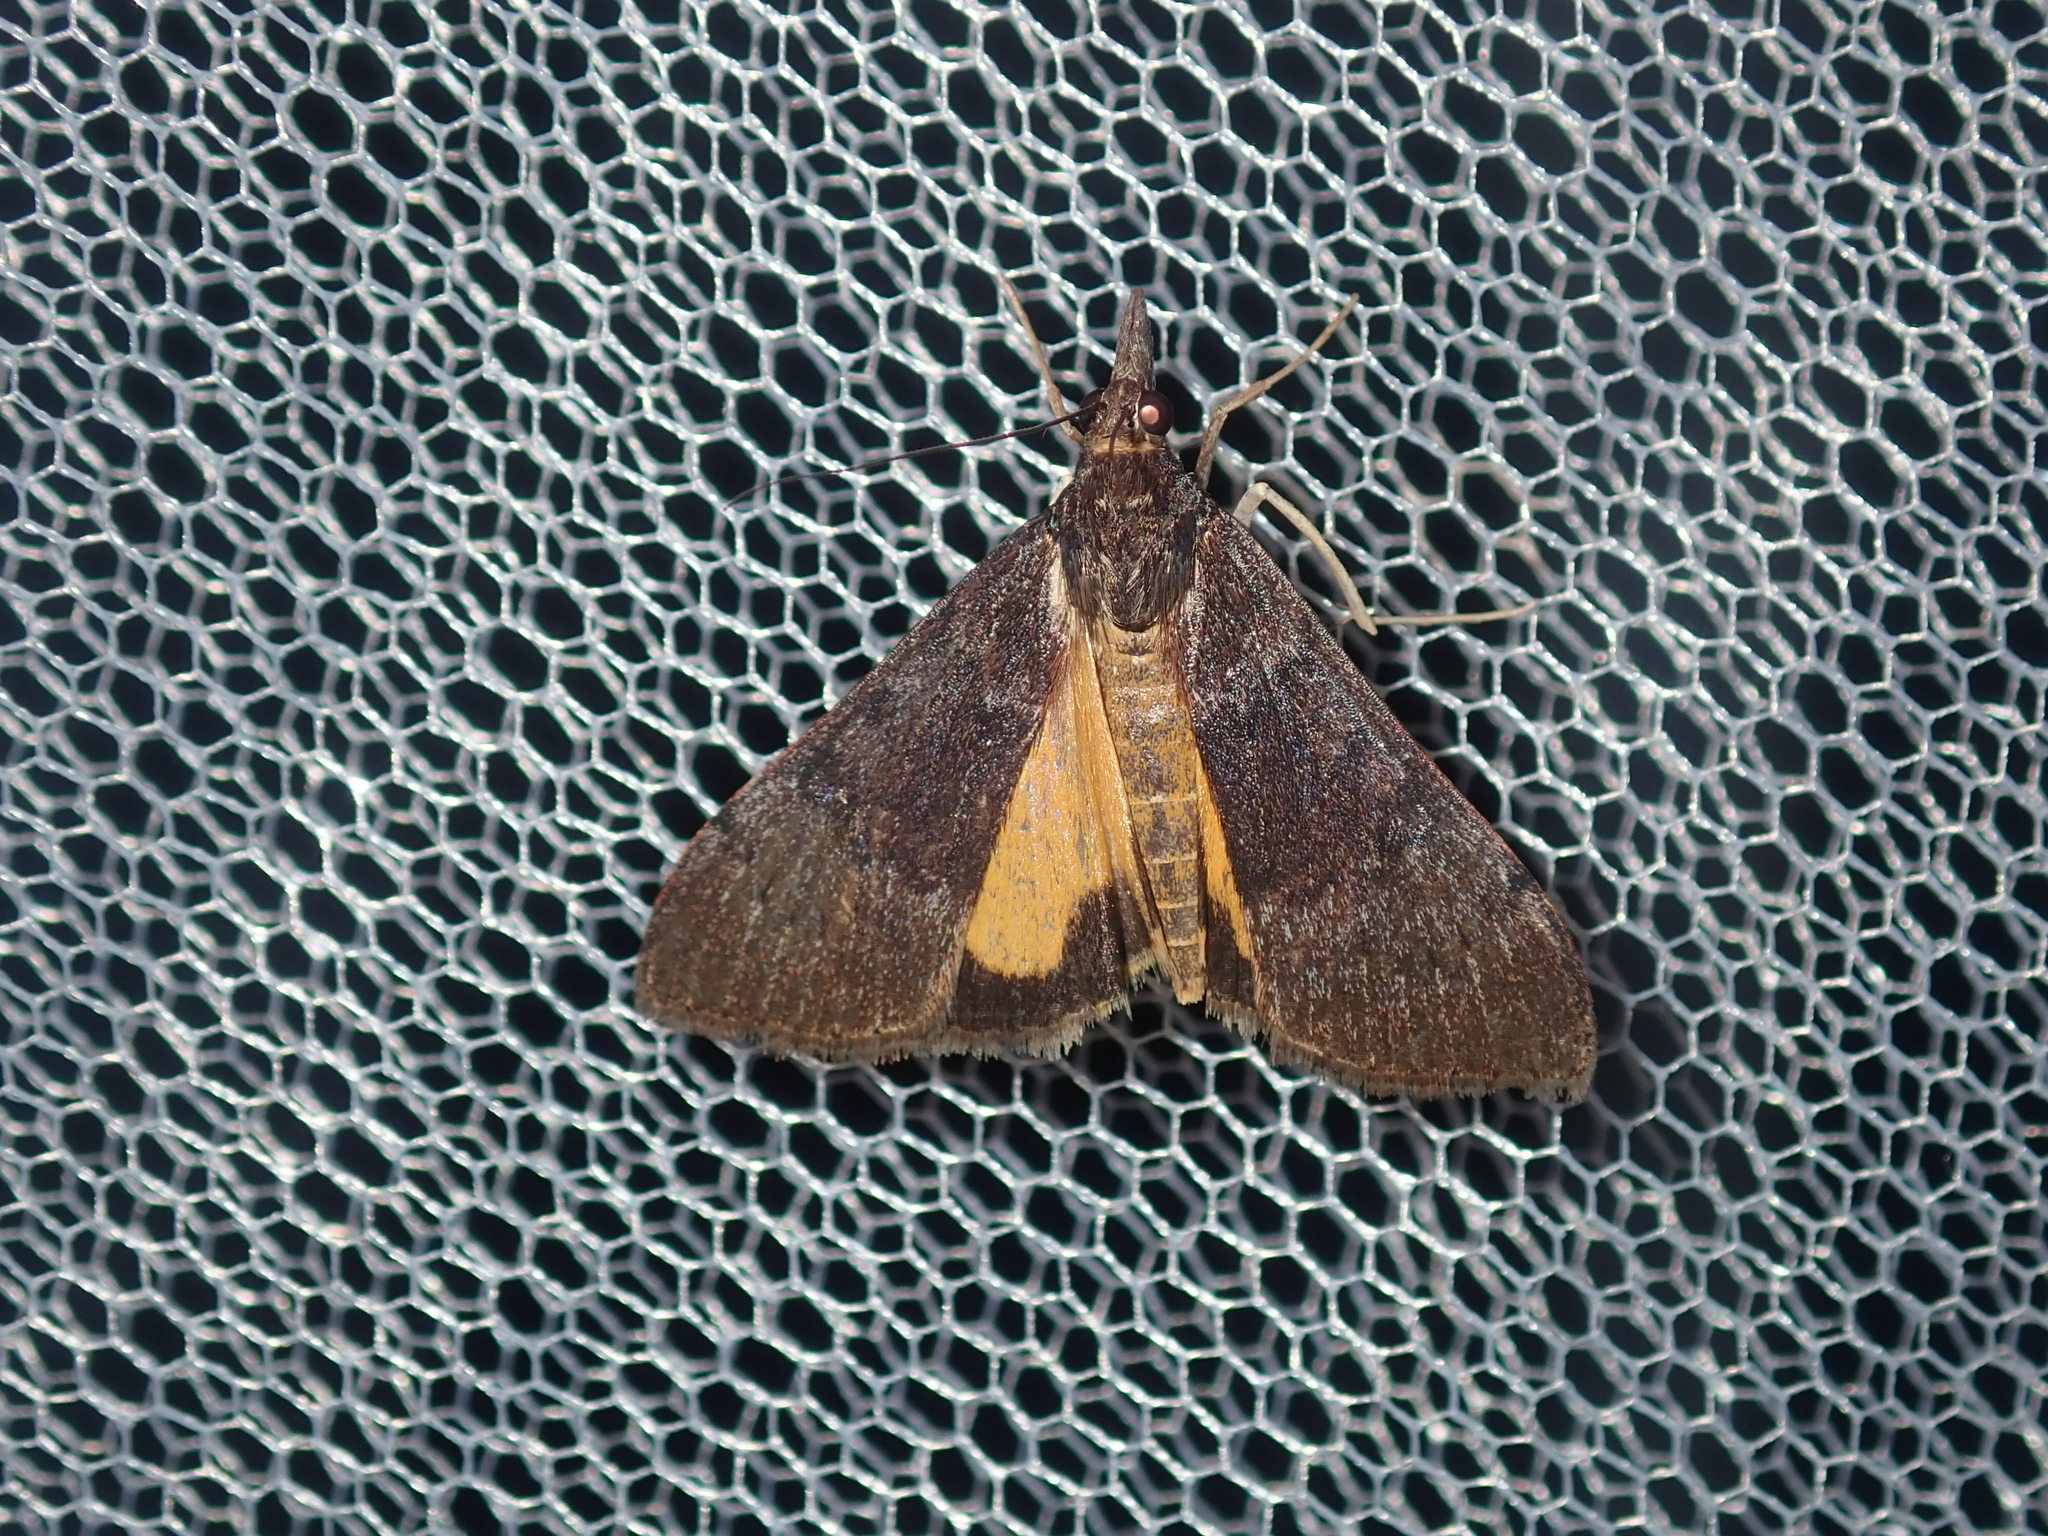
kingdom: Animalia
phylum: Arthropoda
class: Insecta
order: Lepidoptera
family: Crambidae
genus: Uresiphita
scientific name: Uresiphita ornithopteralis
